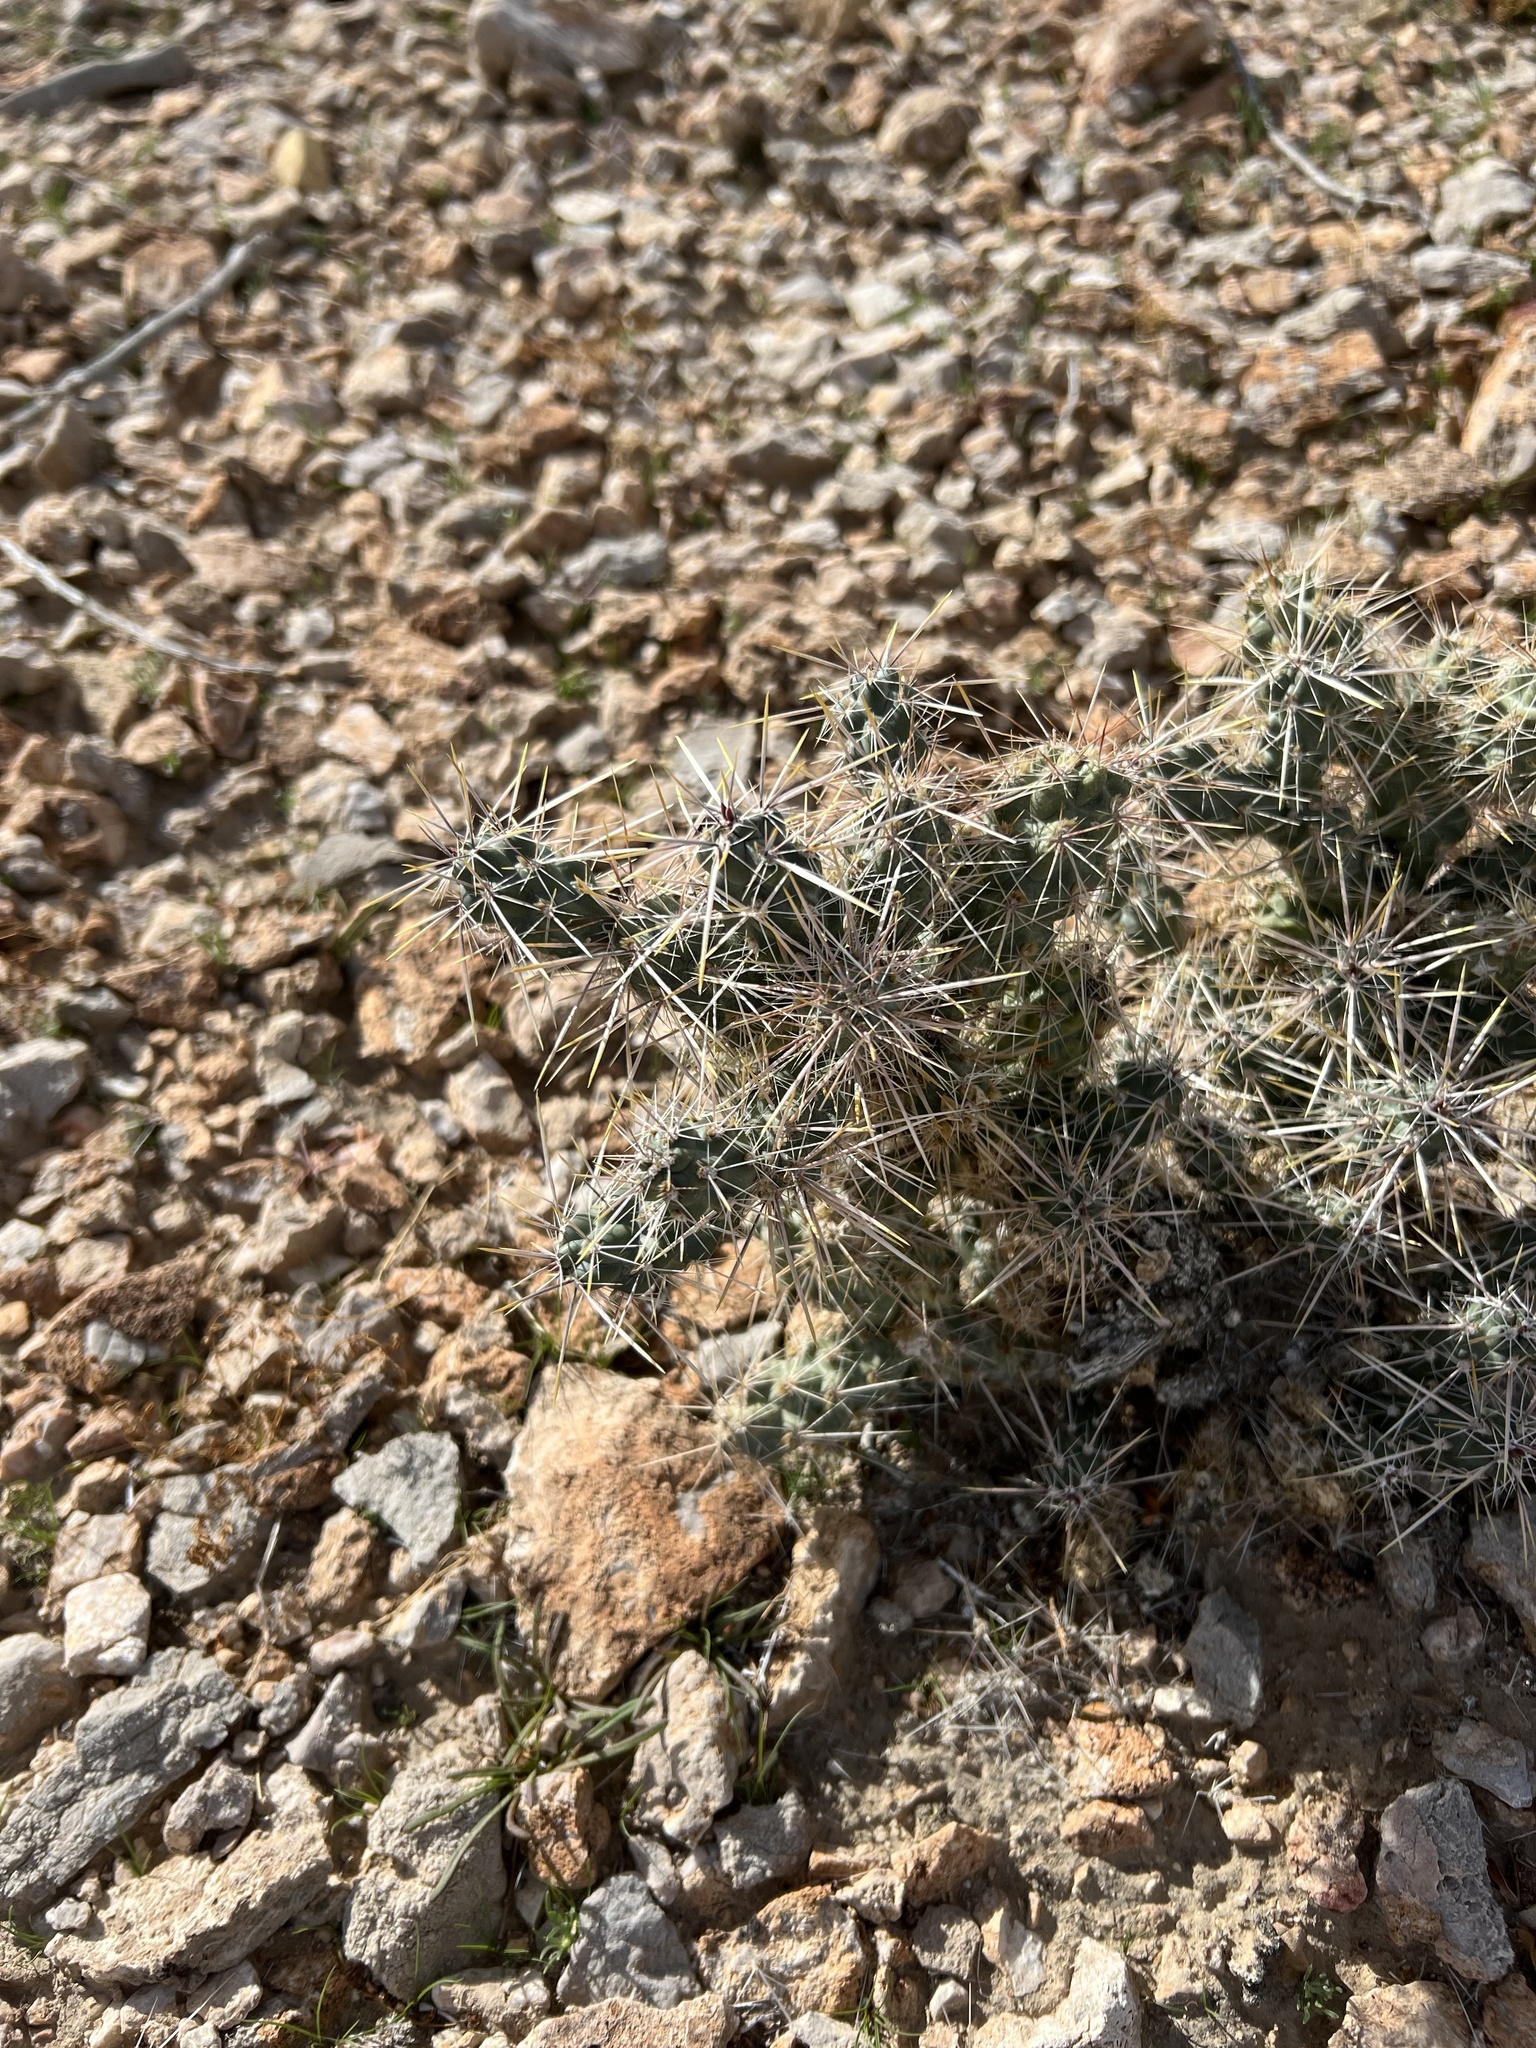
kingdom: Plantae
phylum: Tracheophyta
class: Magnoliopsida
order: Caryophyllales
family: Cactaceae
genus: Cylindropuntia
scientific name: Cylindropuntia echinocarpa
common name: Ground cholla
